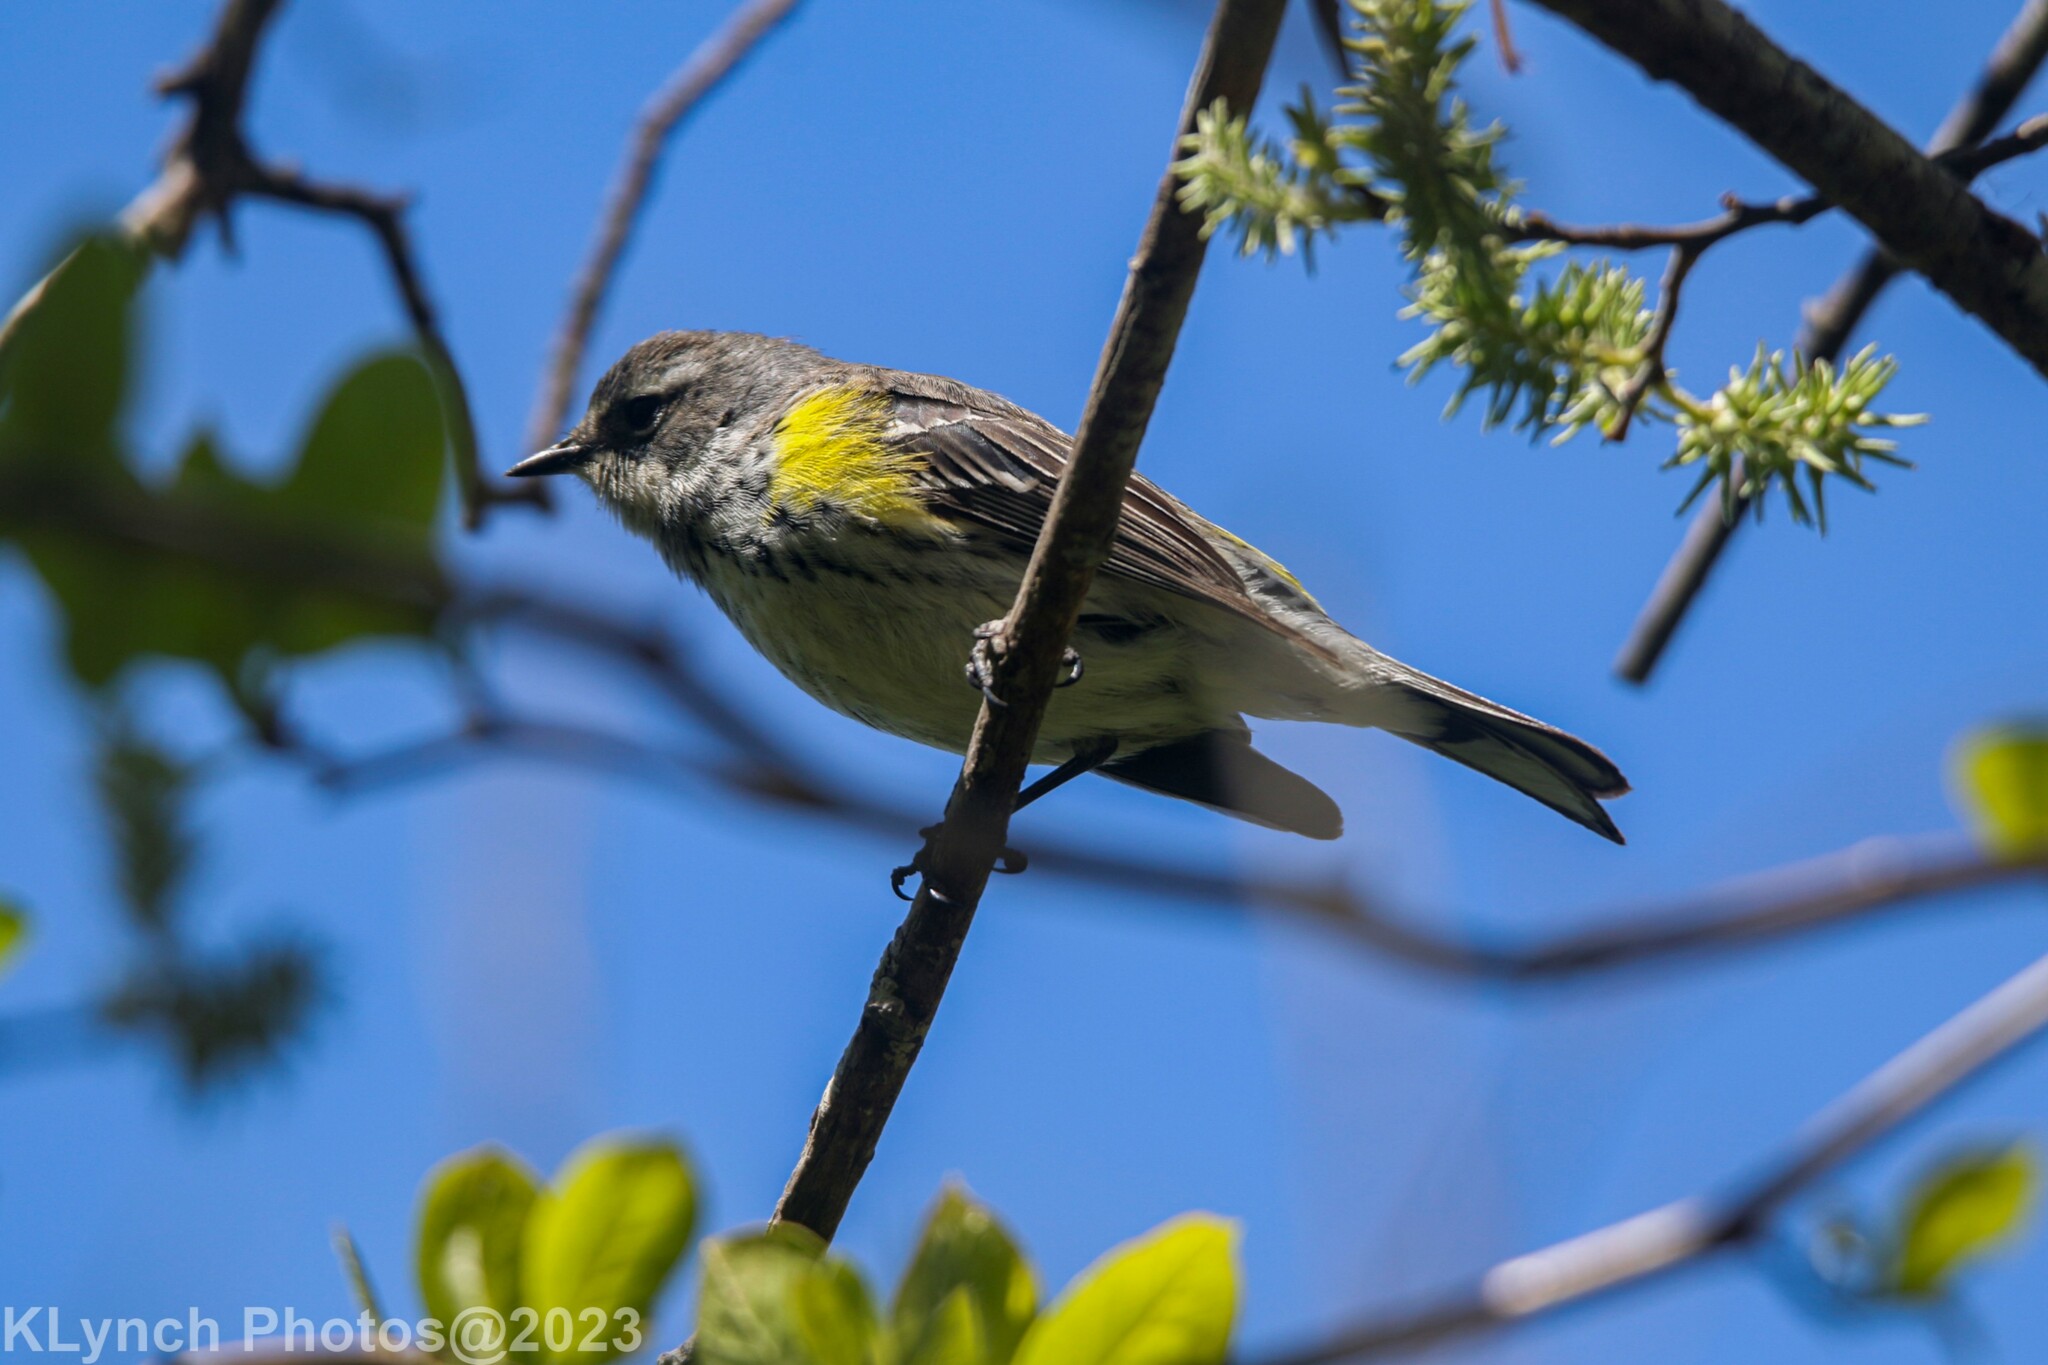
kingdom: Animalia
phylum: Chordata
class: Aves
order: Passeriformes
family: Parulidae
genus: Setophaga
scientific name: Setophaga coronata
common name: Myrtle warbler
